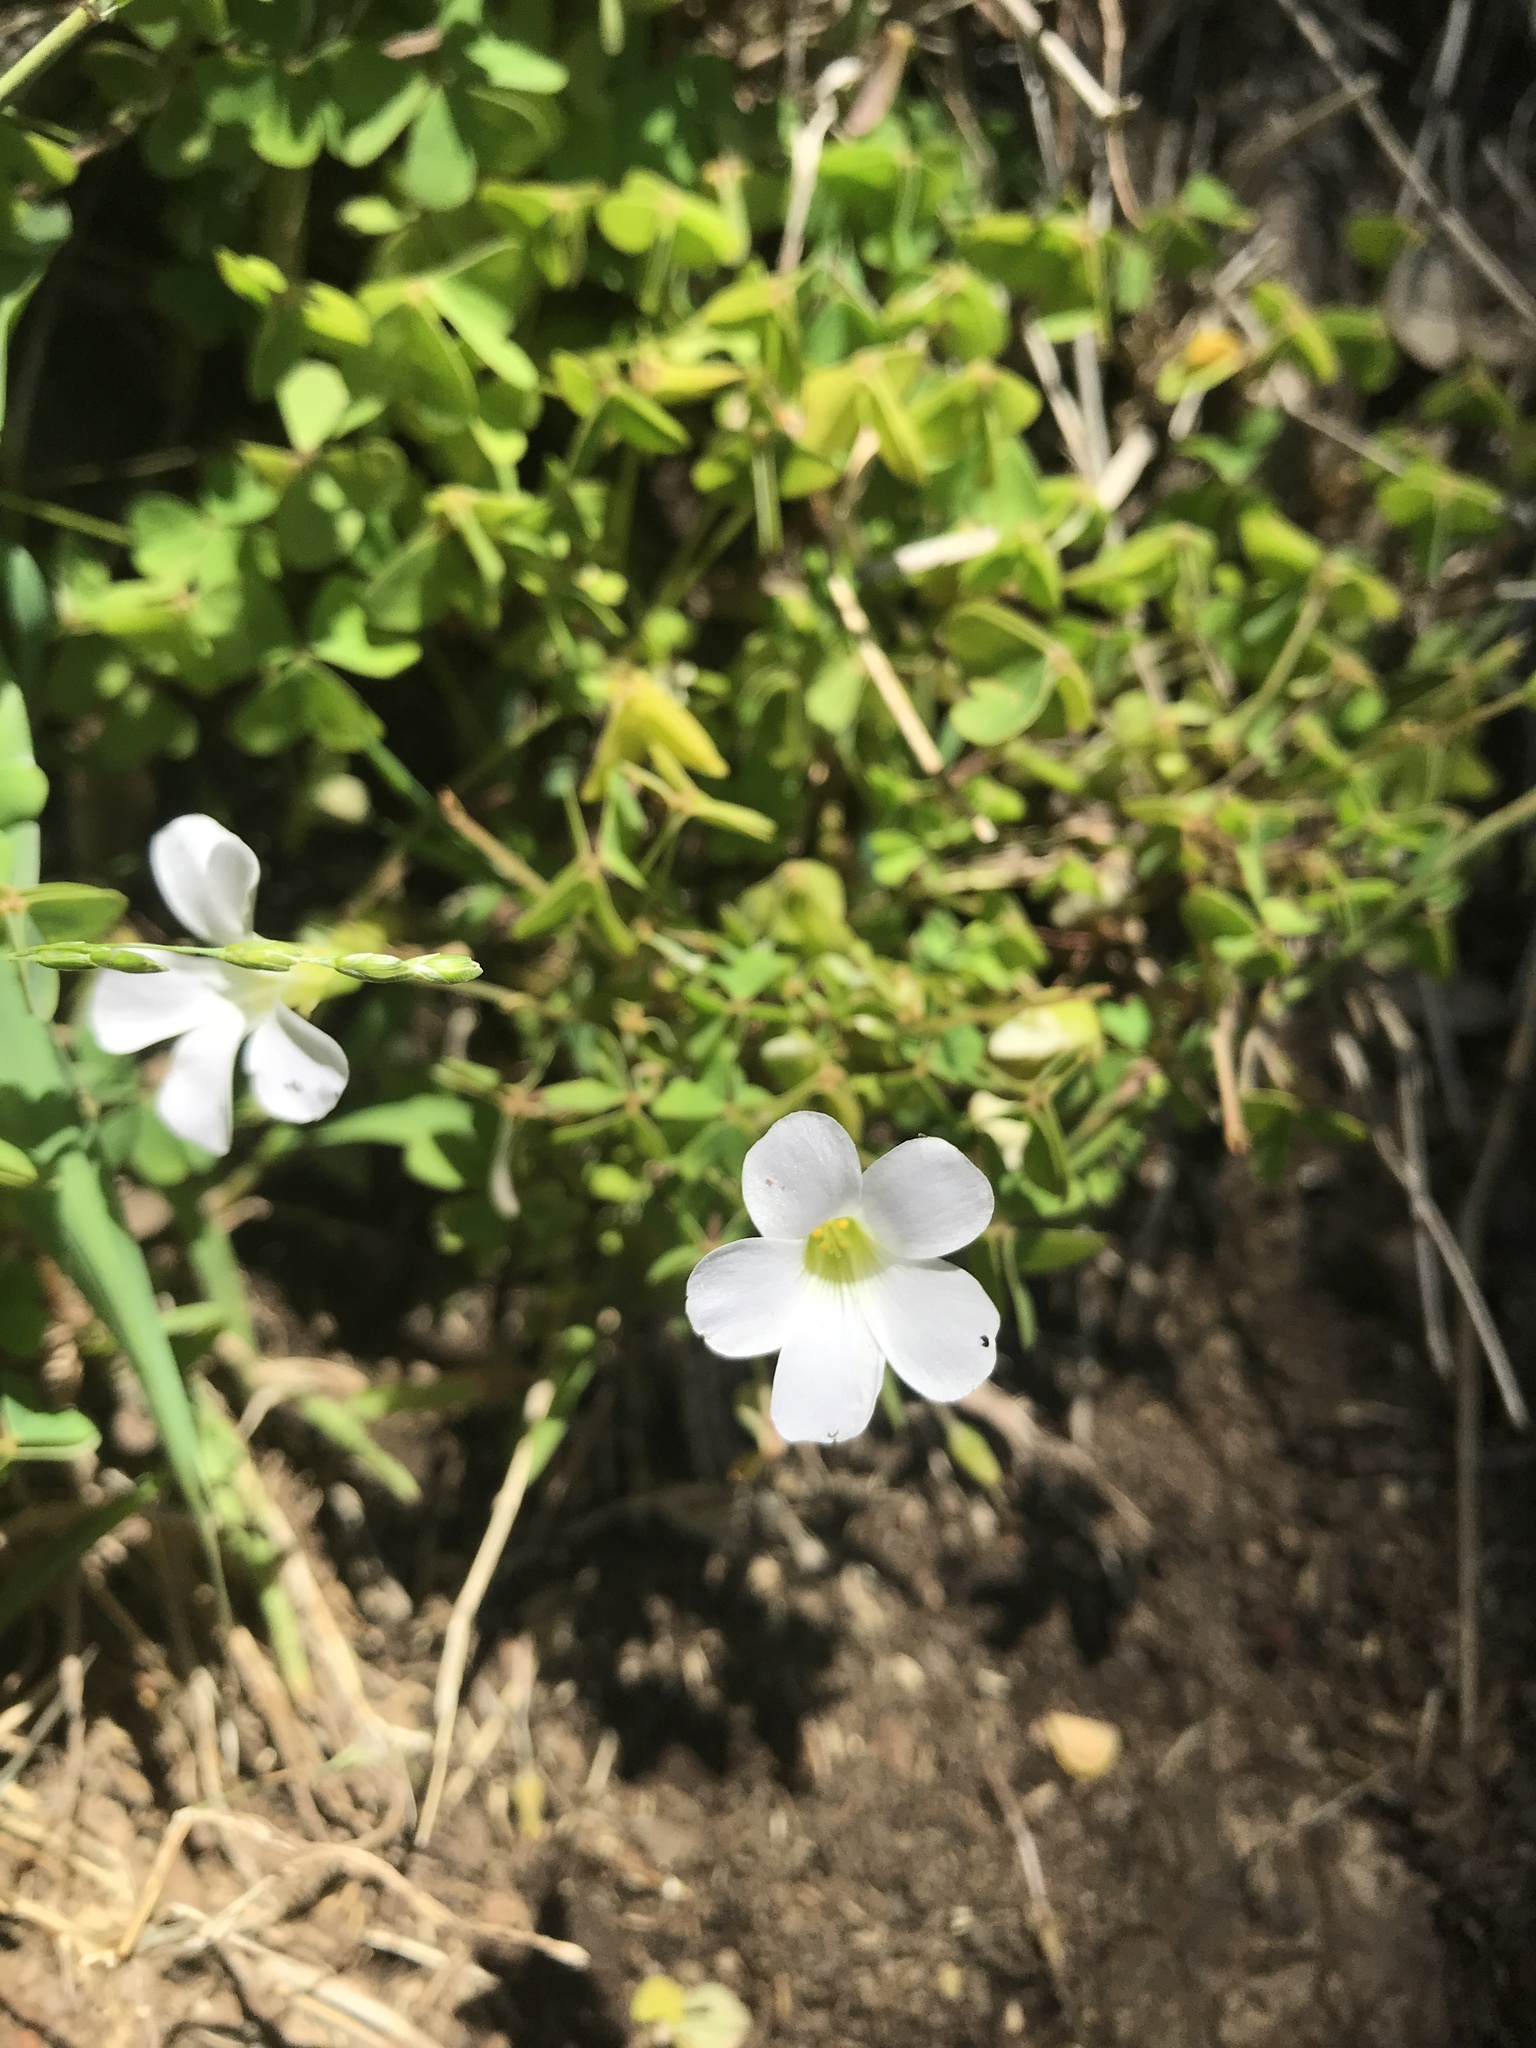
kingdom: Plantae
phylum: Tracheophyta
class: Magnoliopsida
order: Oxalidales
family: Oxalidaceae
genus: Oxalis
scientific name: Oxalis incarnata
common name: Pale pink-sorrel
